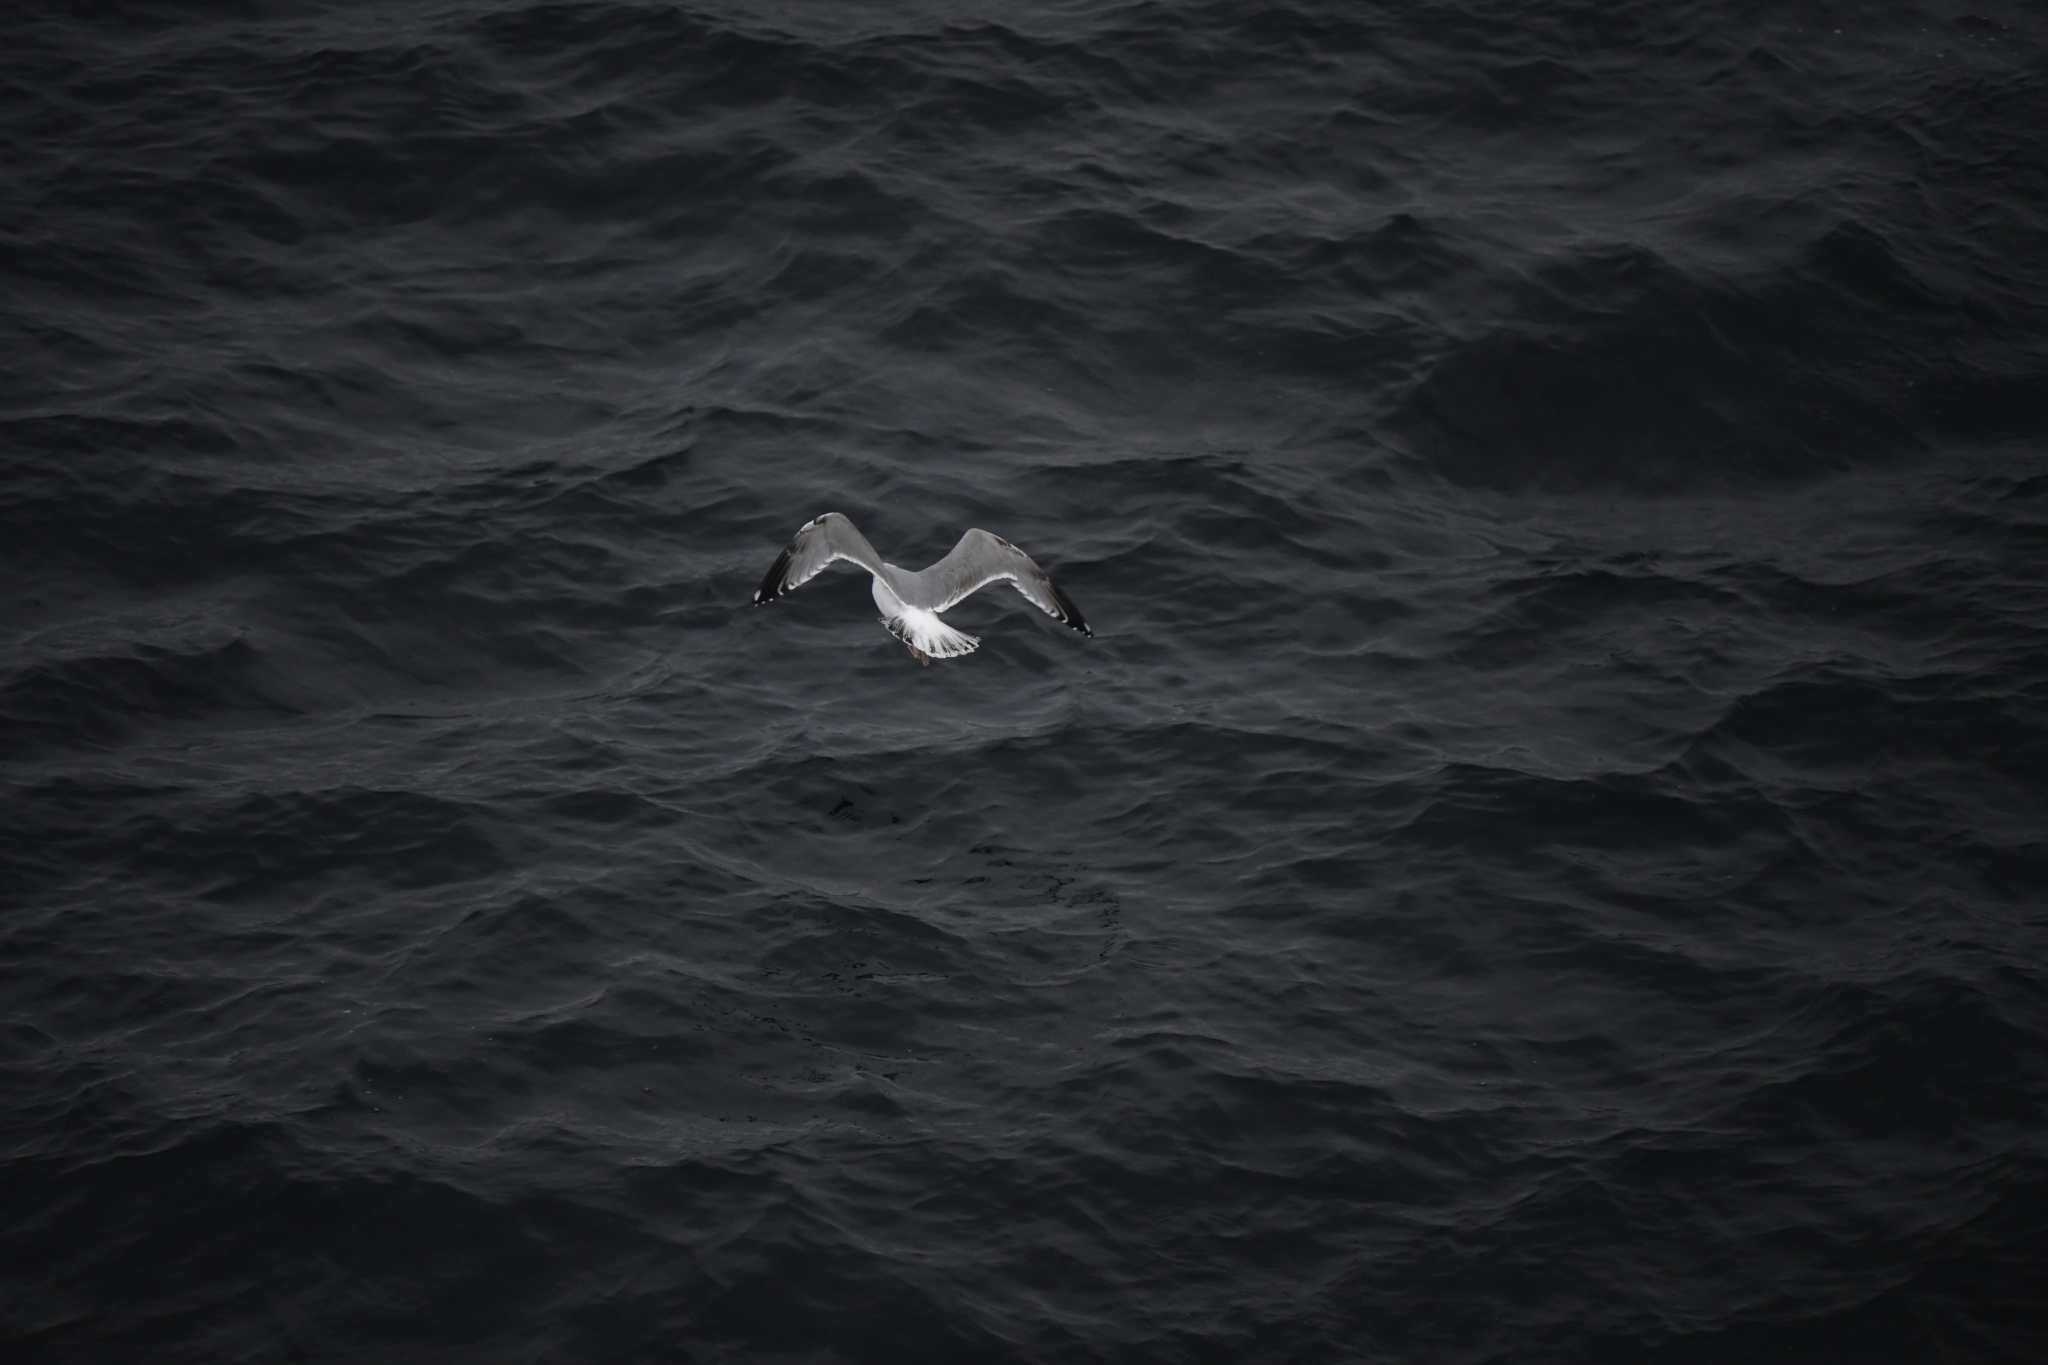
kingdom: Animalia
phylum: Chordata
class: Aves
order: Charadriiformes
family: Laridae
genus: Larus
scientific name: Larus argentatus
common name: Herring gull
